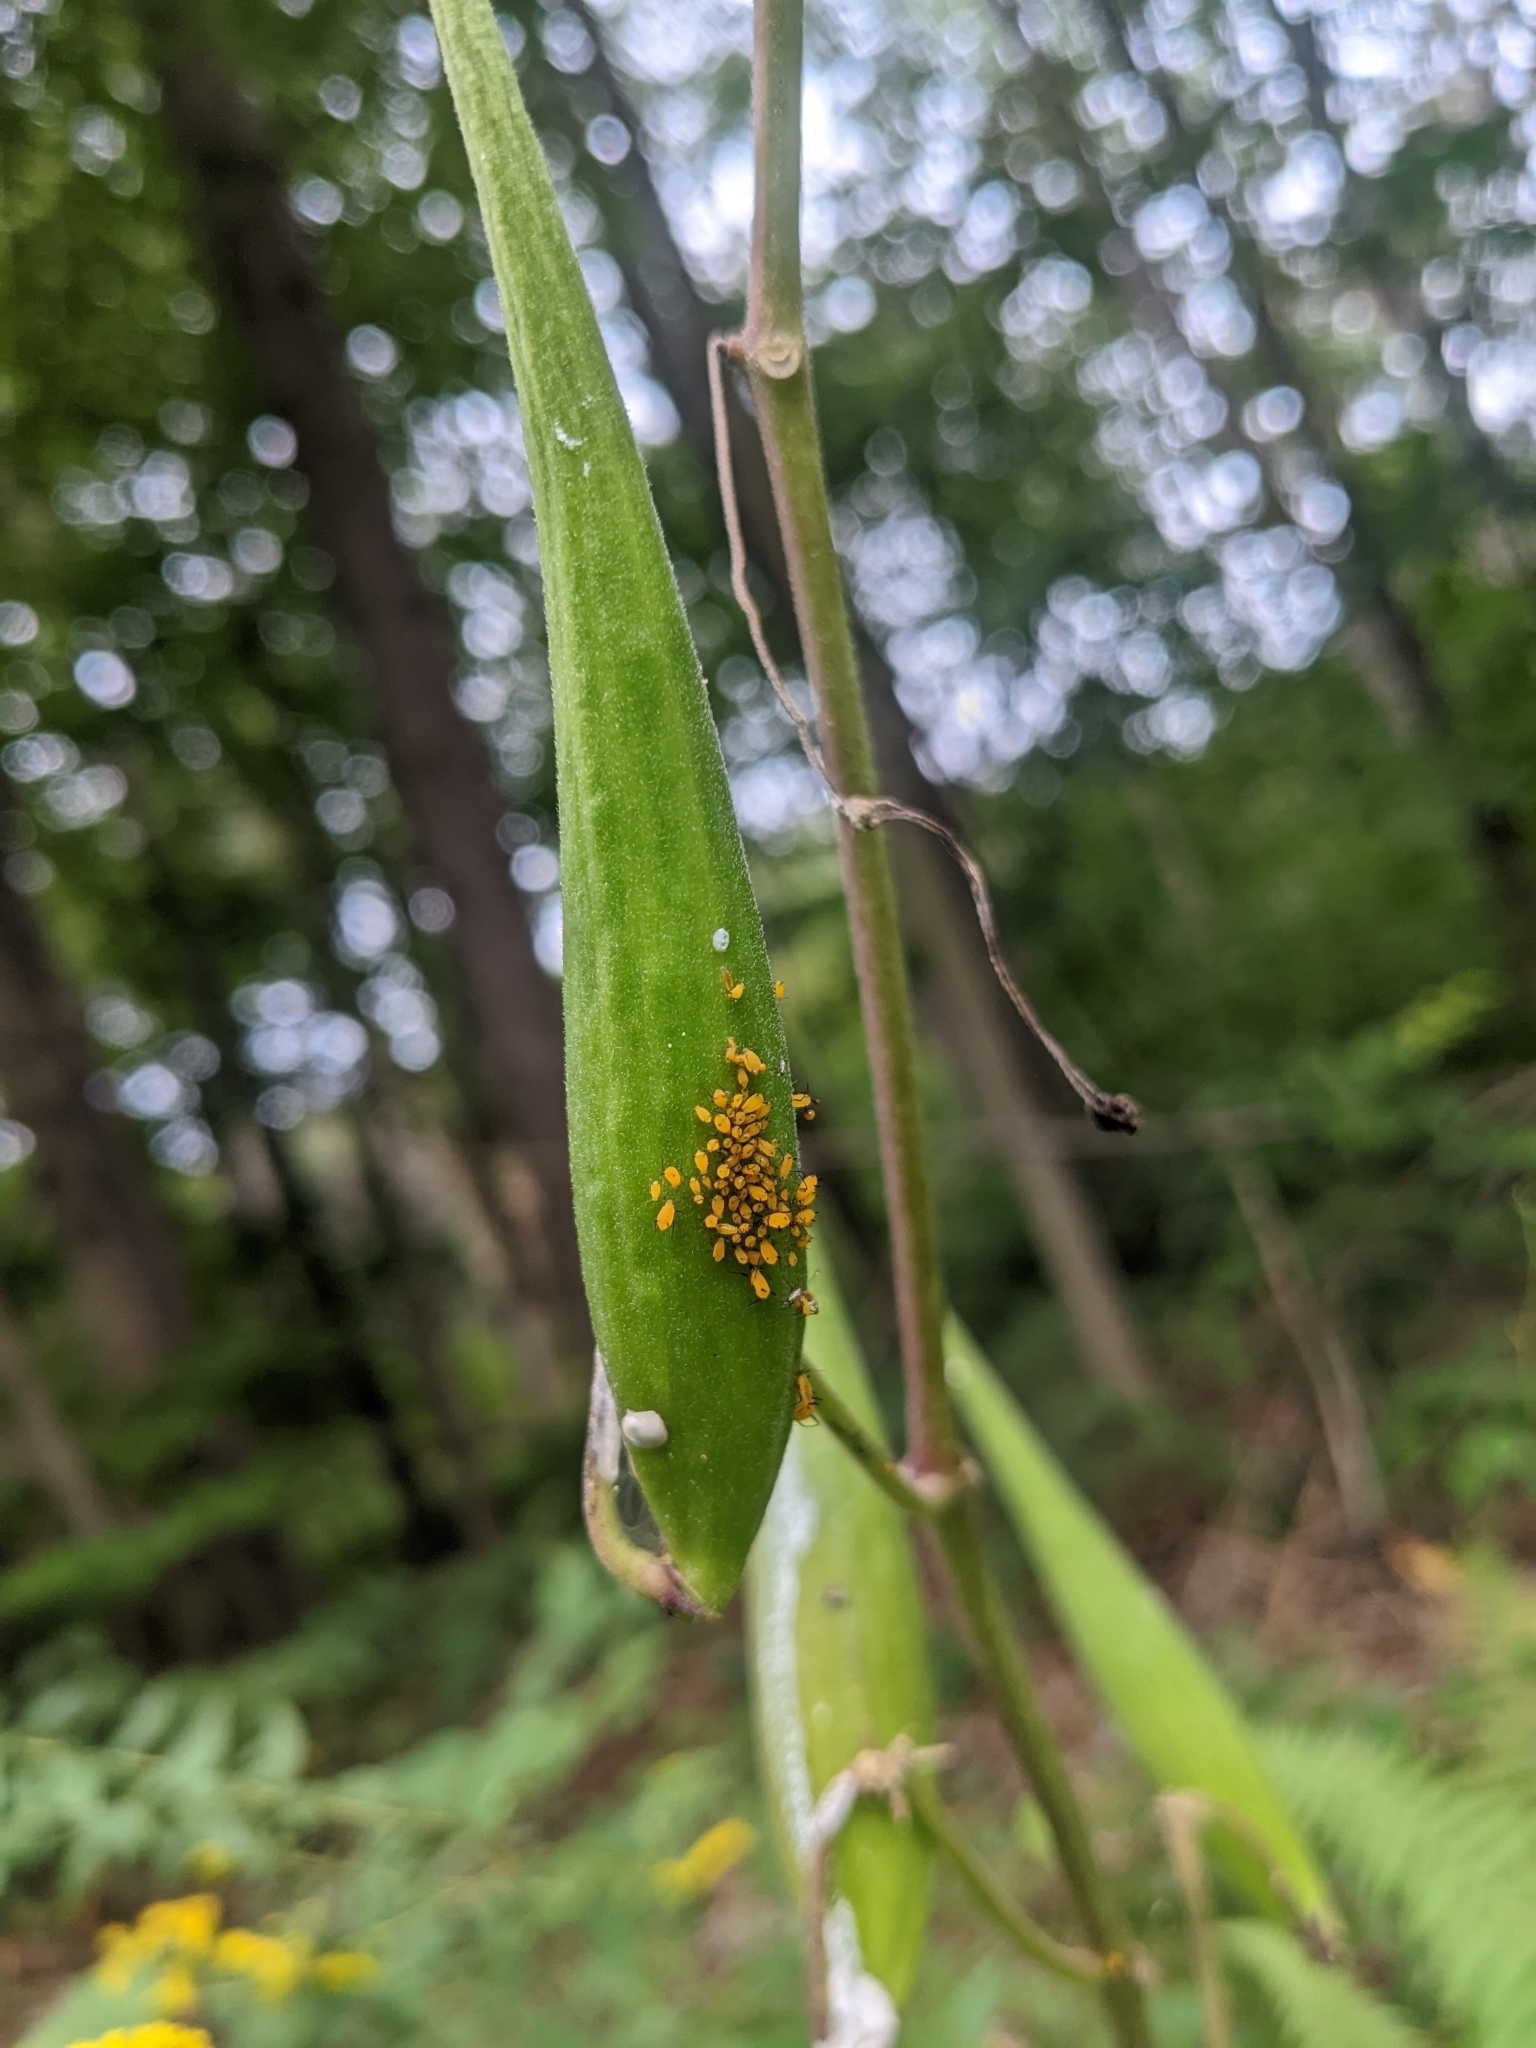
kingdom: Animalia
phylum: Arthropoda
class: Insecta
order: Hemiptera
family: Aphididae
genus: Aphis
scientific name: Aphis nerii
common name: Oleander aphid
